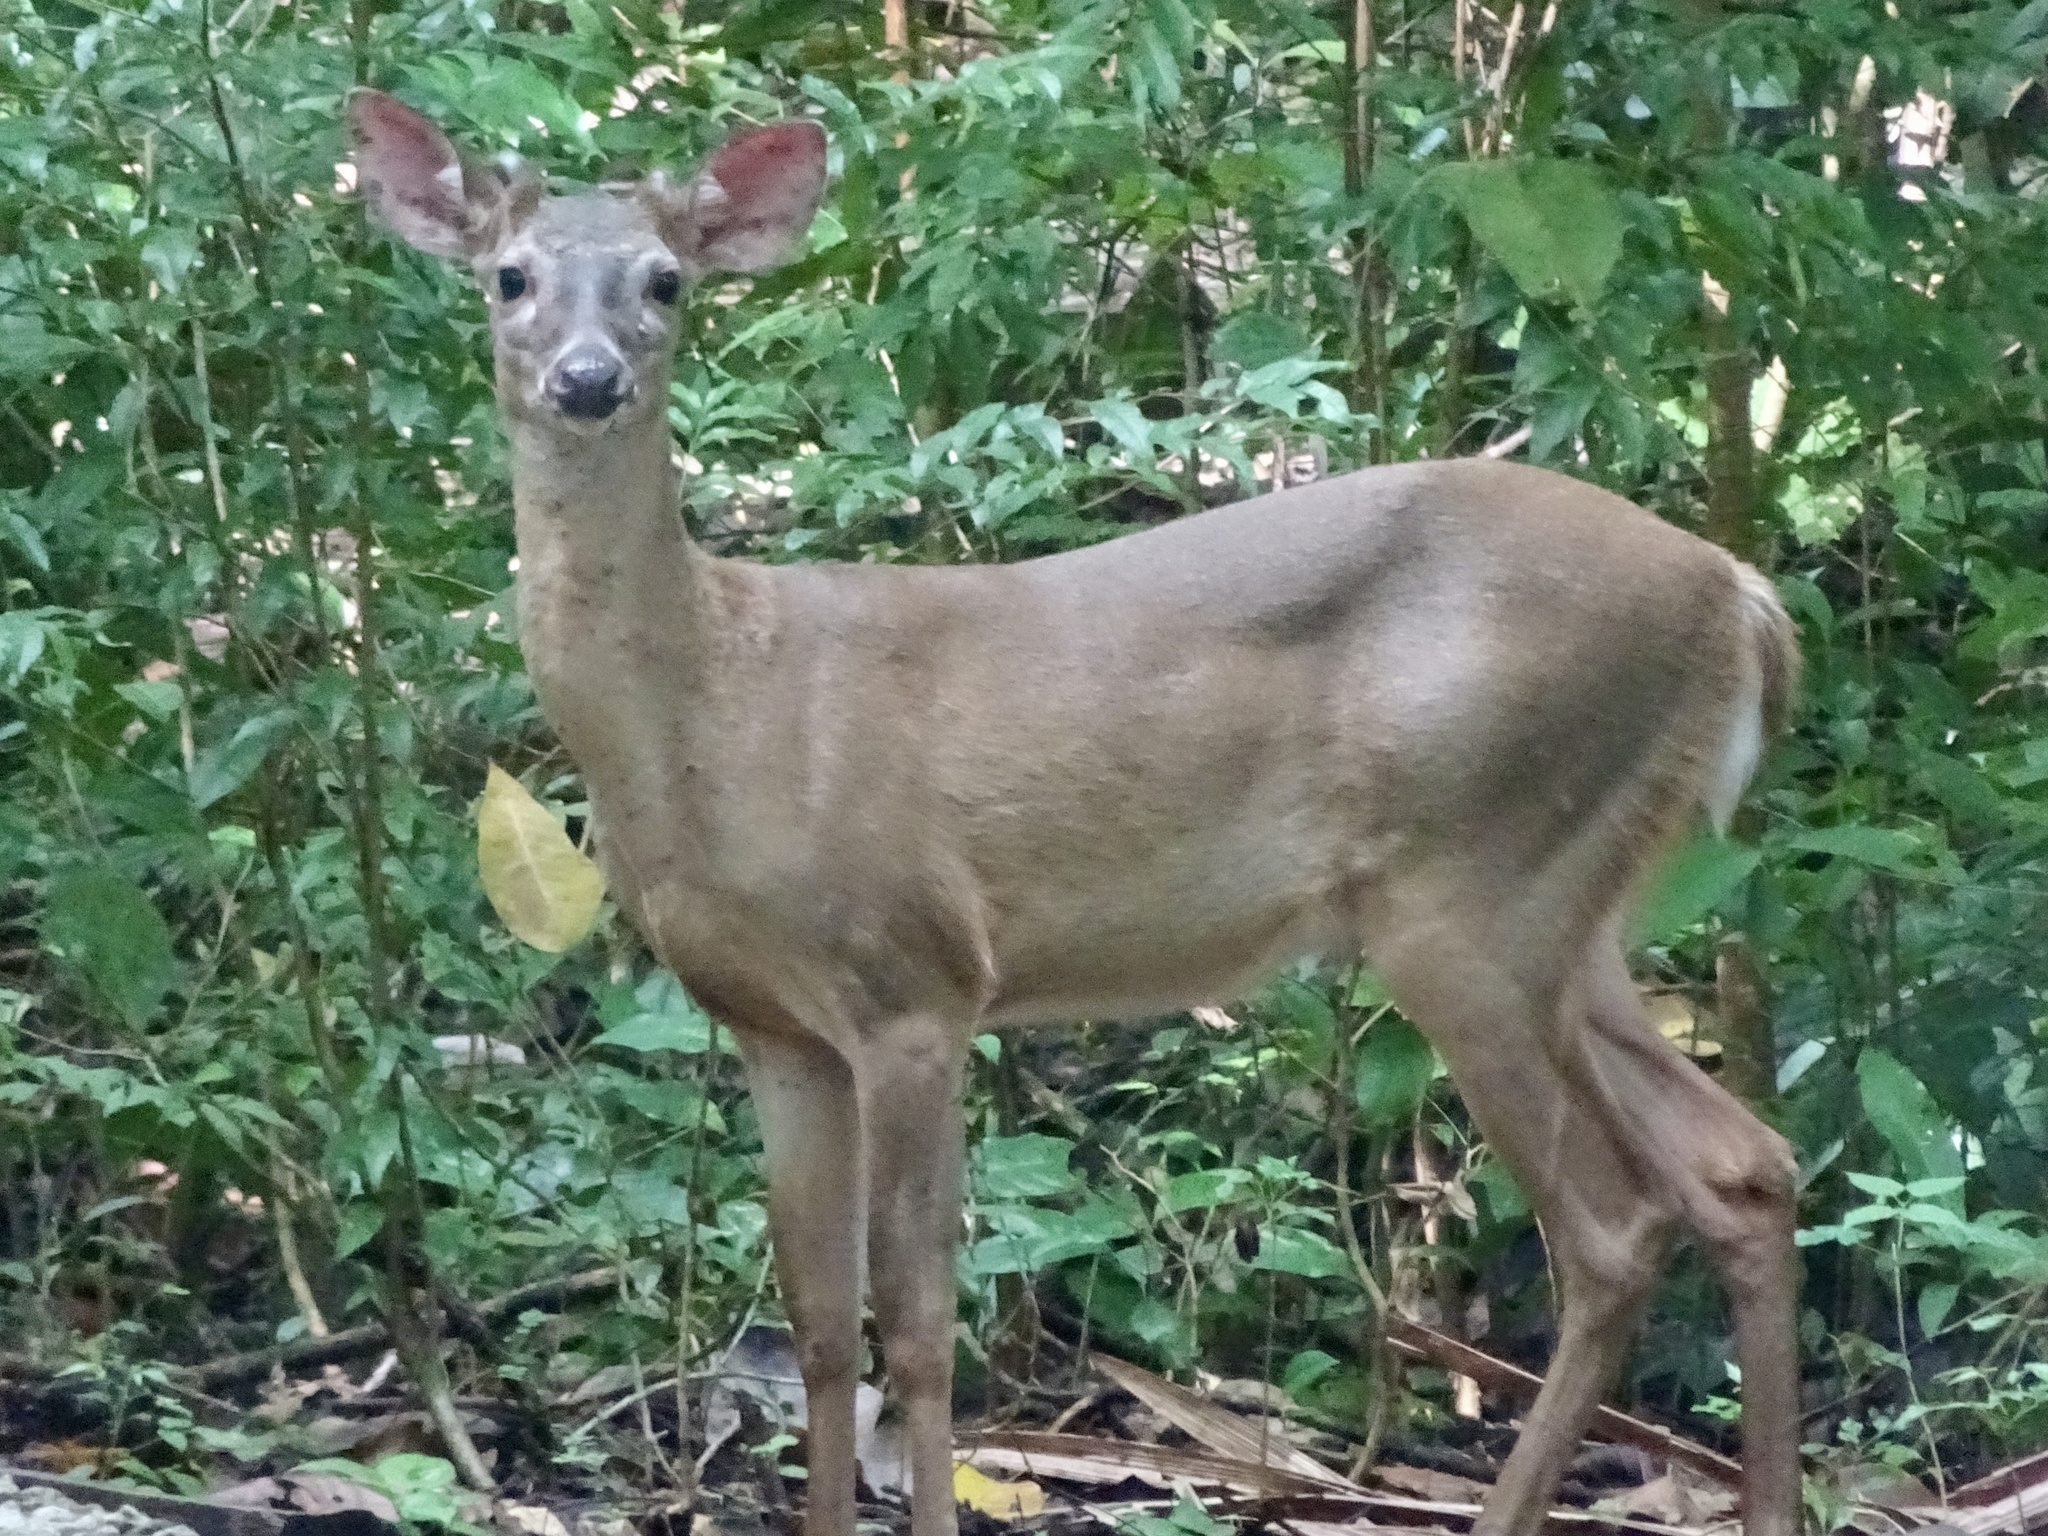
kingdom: Animalia
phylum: Chordata
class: Mammalia
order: Artiodactyla
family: Cervidae
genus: Odocoileus
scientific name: Odocoileus virginianus
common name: White-tailed deer
